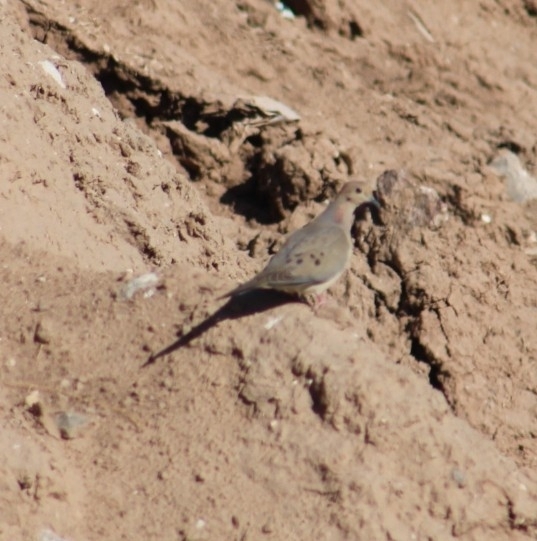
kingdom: Animalia
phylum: Chordata
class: Aves
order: Columbiformes
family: Columbidae
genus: Zenaida
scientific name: Zenaida macroura
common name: Mourning dove
